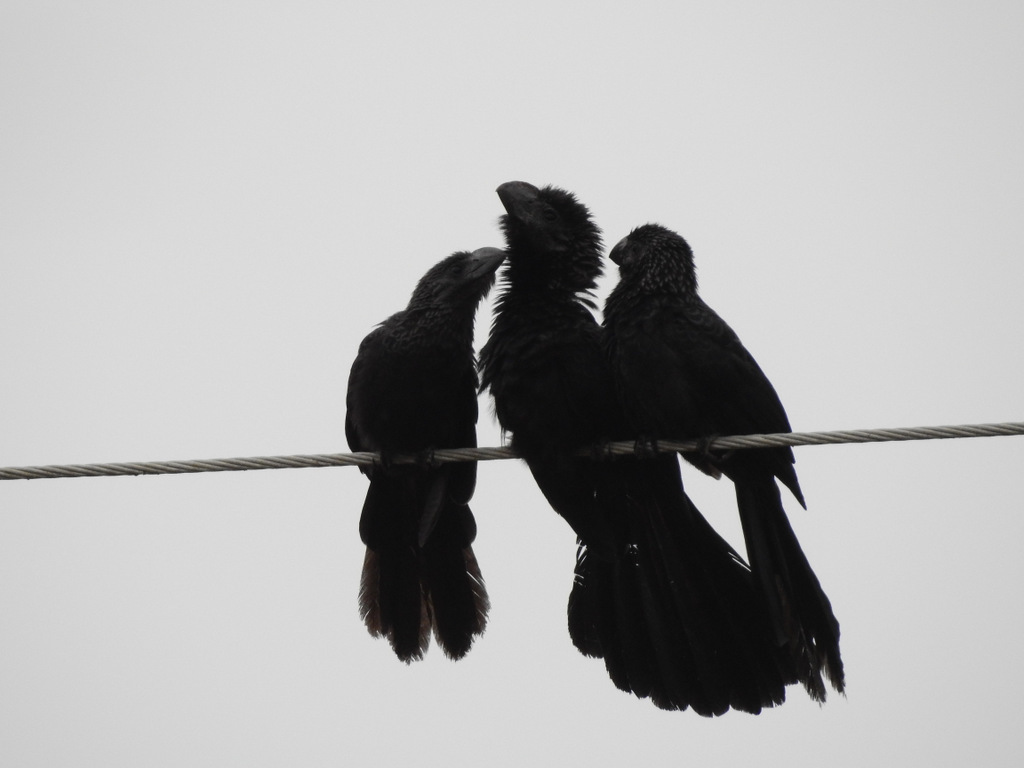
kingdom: Animalia
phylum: Chordata
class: Aves
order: Cuculiformes
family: Cuculidae
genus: Crotophaga
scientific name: Crotophaga ani
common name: Smooth-billed ani
